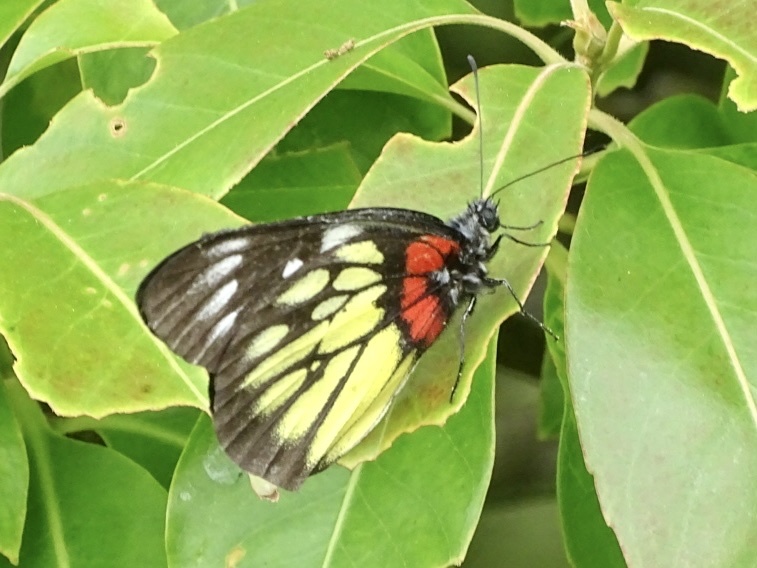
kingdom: Animalia
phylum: Arthropoda
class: Insecta
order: Lepidoptera
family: Pieridae
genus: Delias
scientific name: Delias pasithoe
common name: Red-base jezebel
